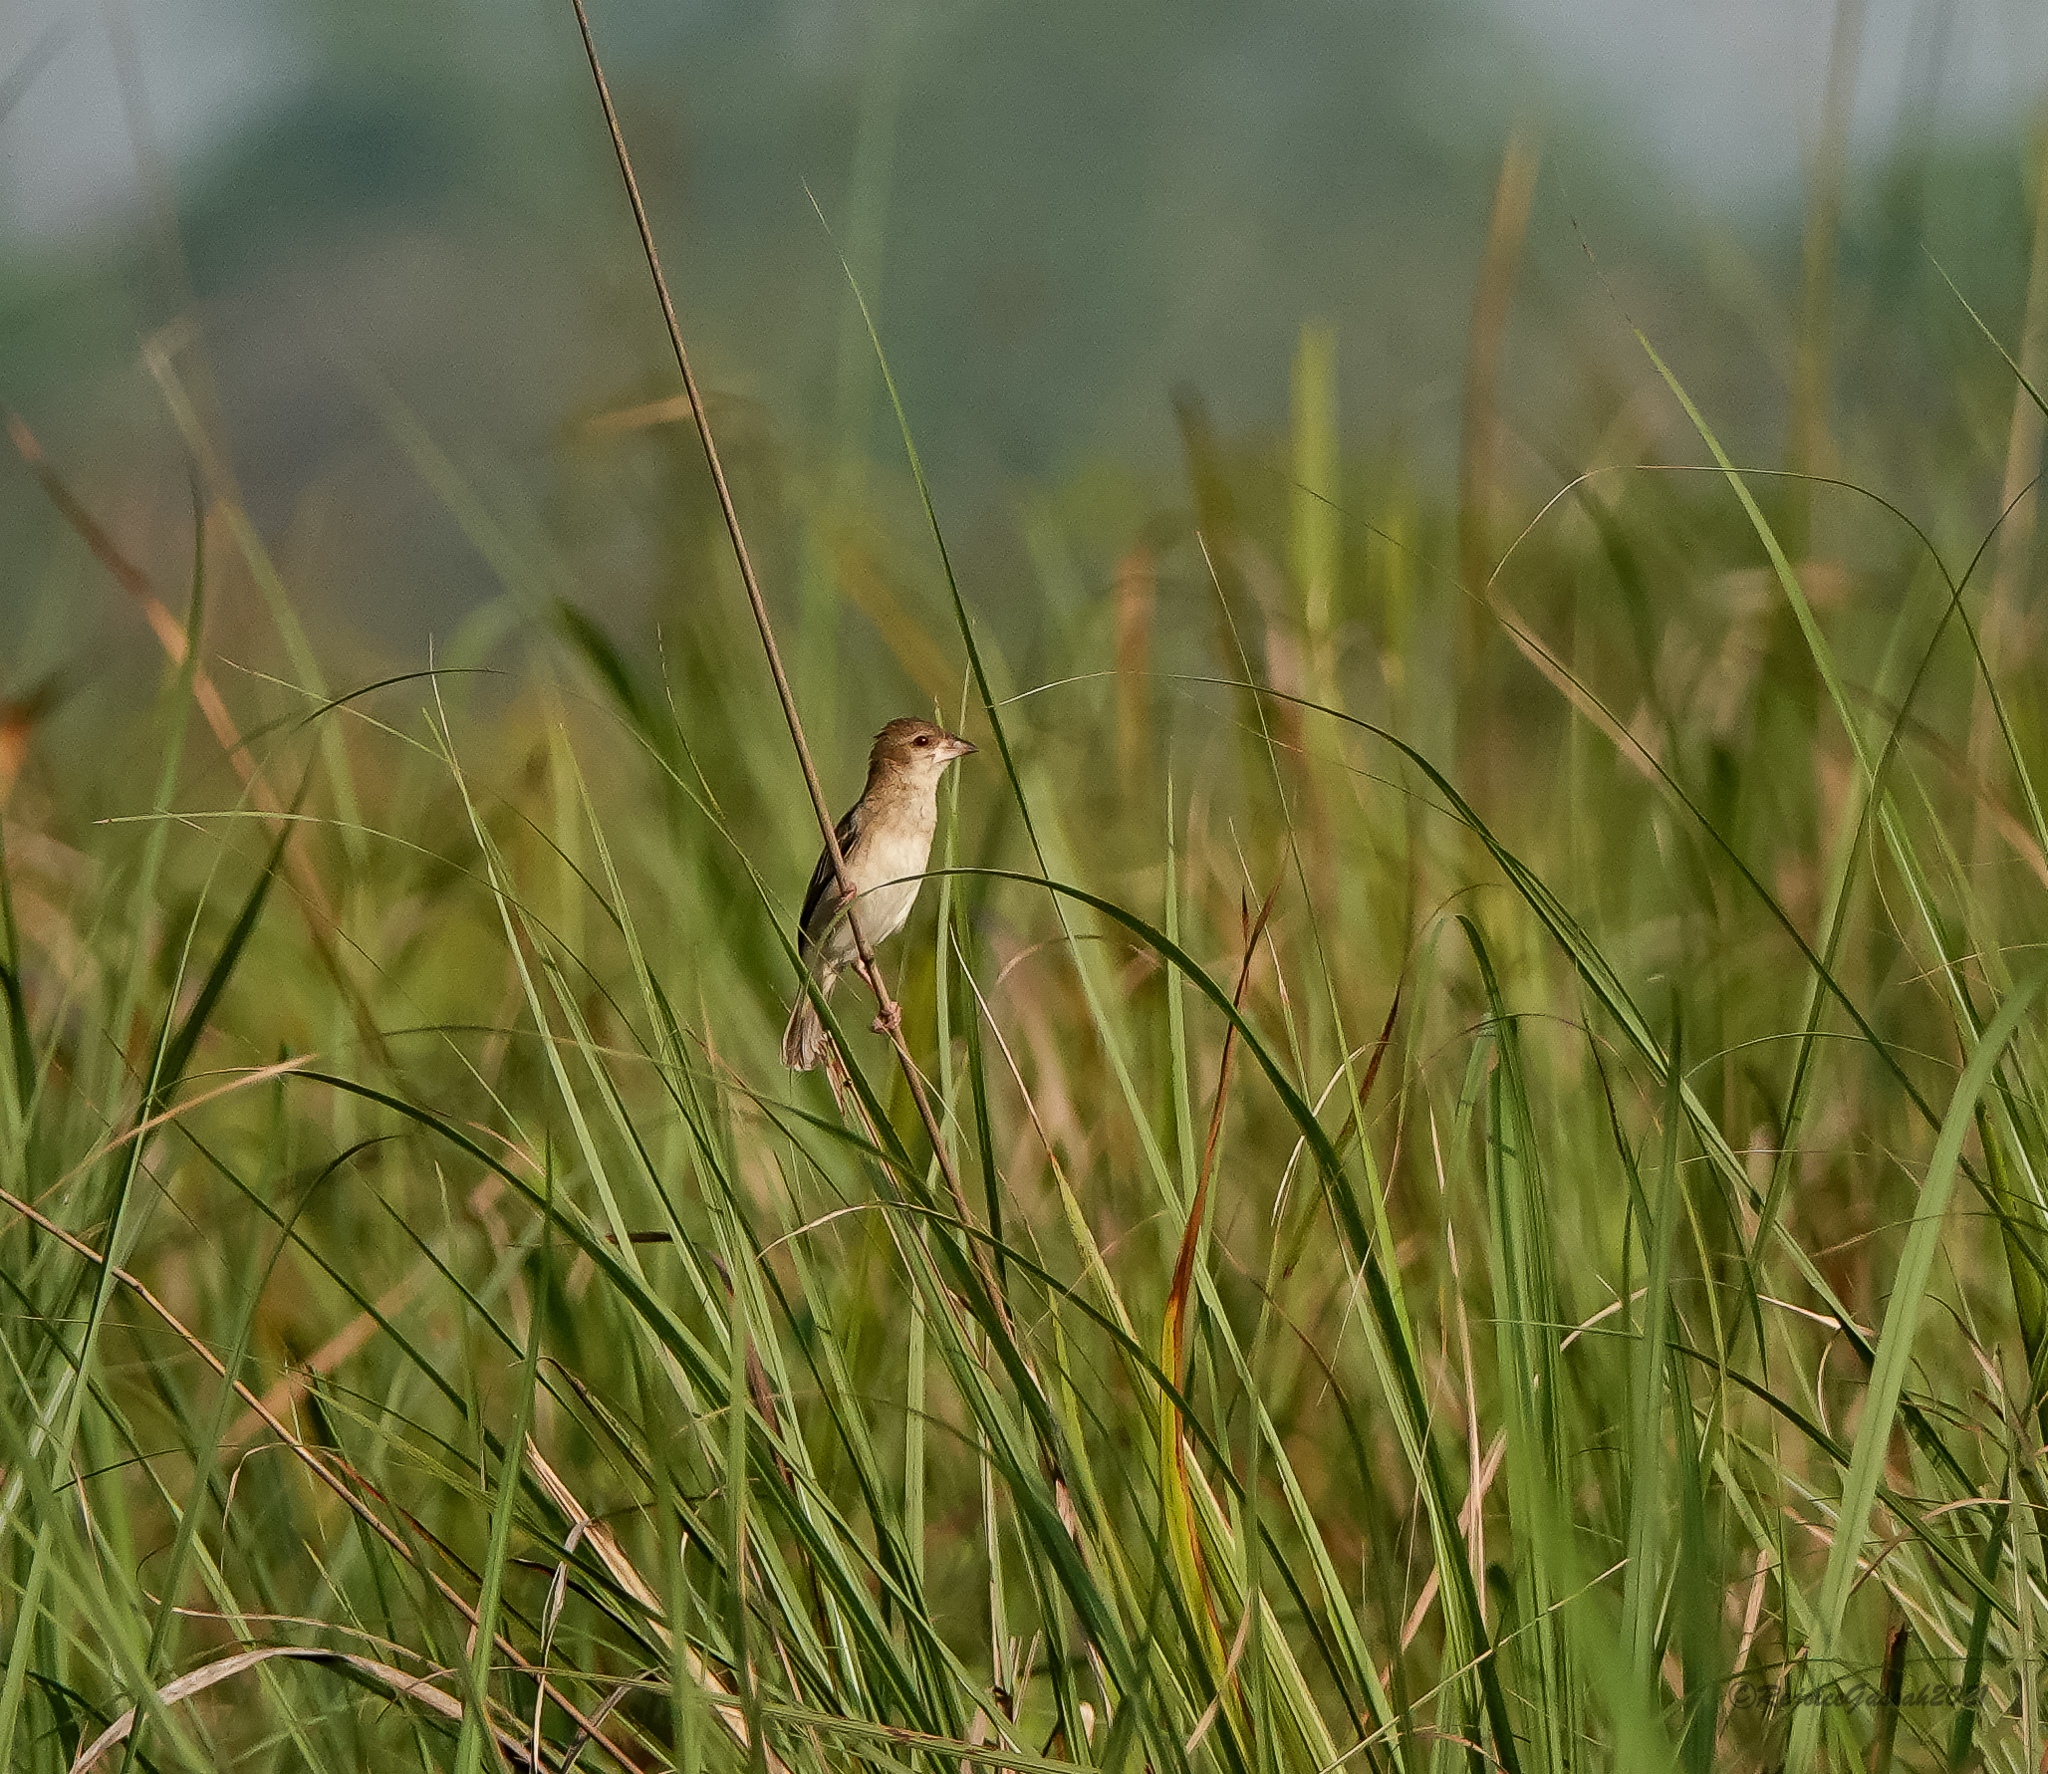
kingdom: Animalia
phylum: Chordata
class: Aves
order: Passeriformes
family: Ploceidae
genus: Ploceus
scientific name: Ploceus megarhynchus
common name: Finn's weaver
